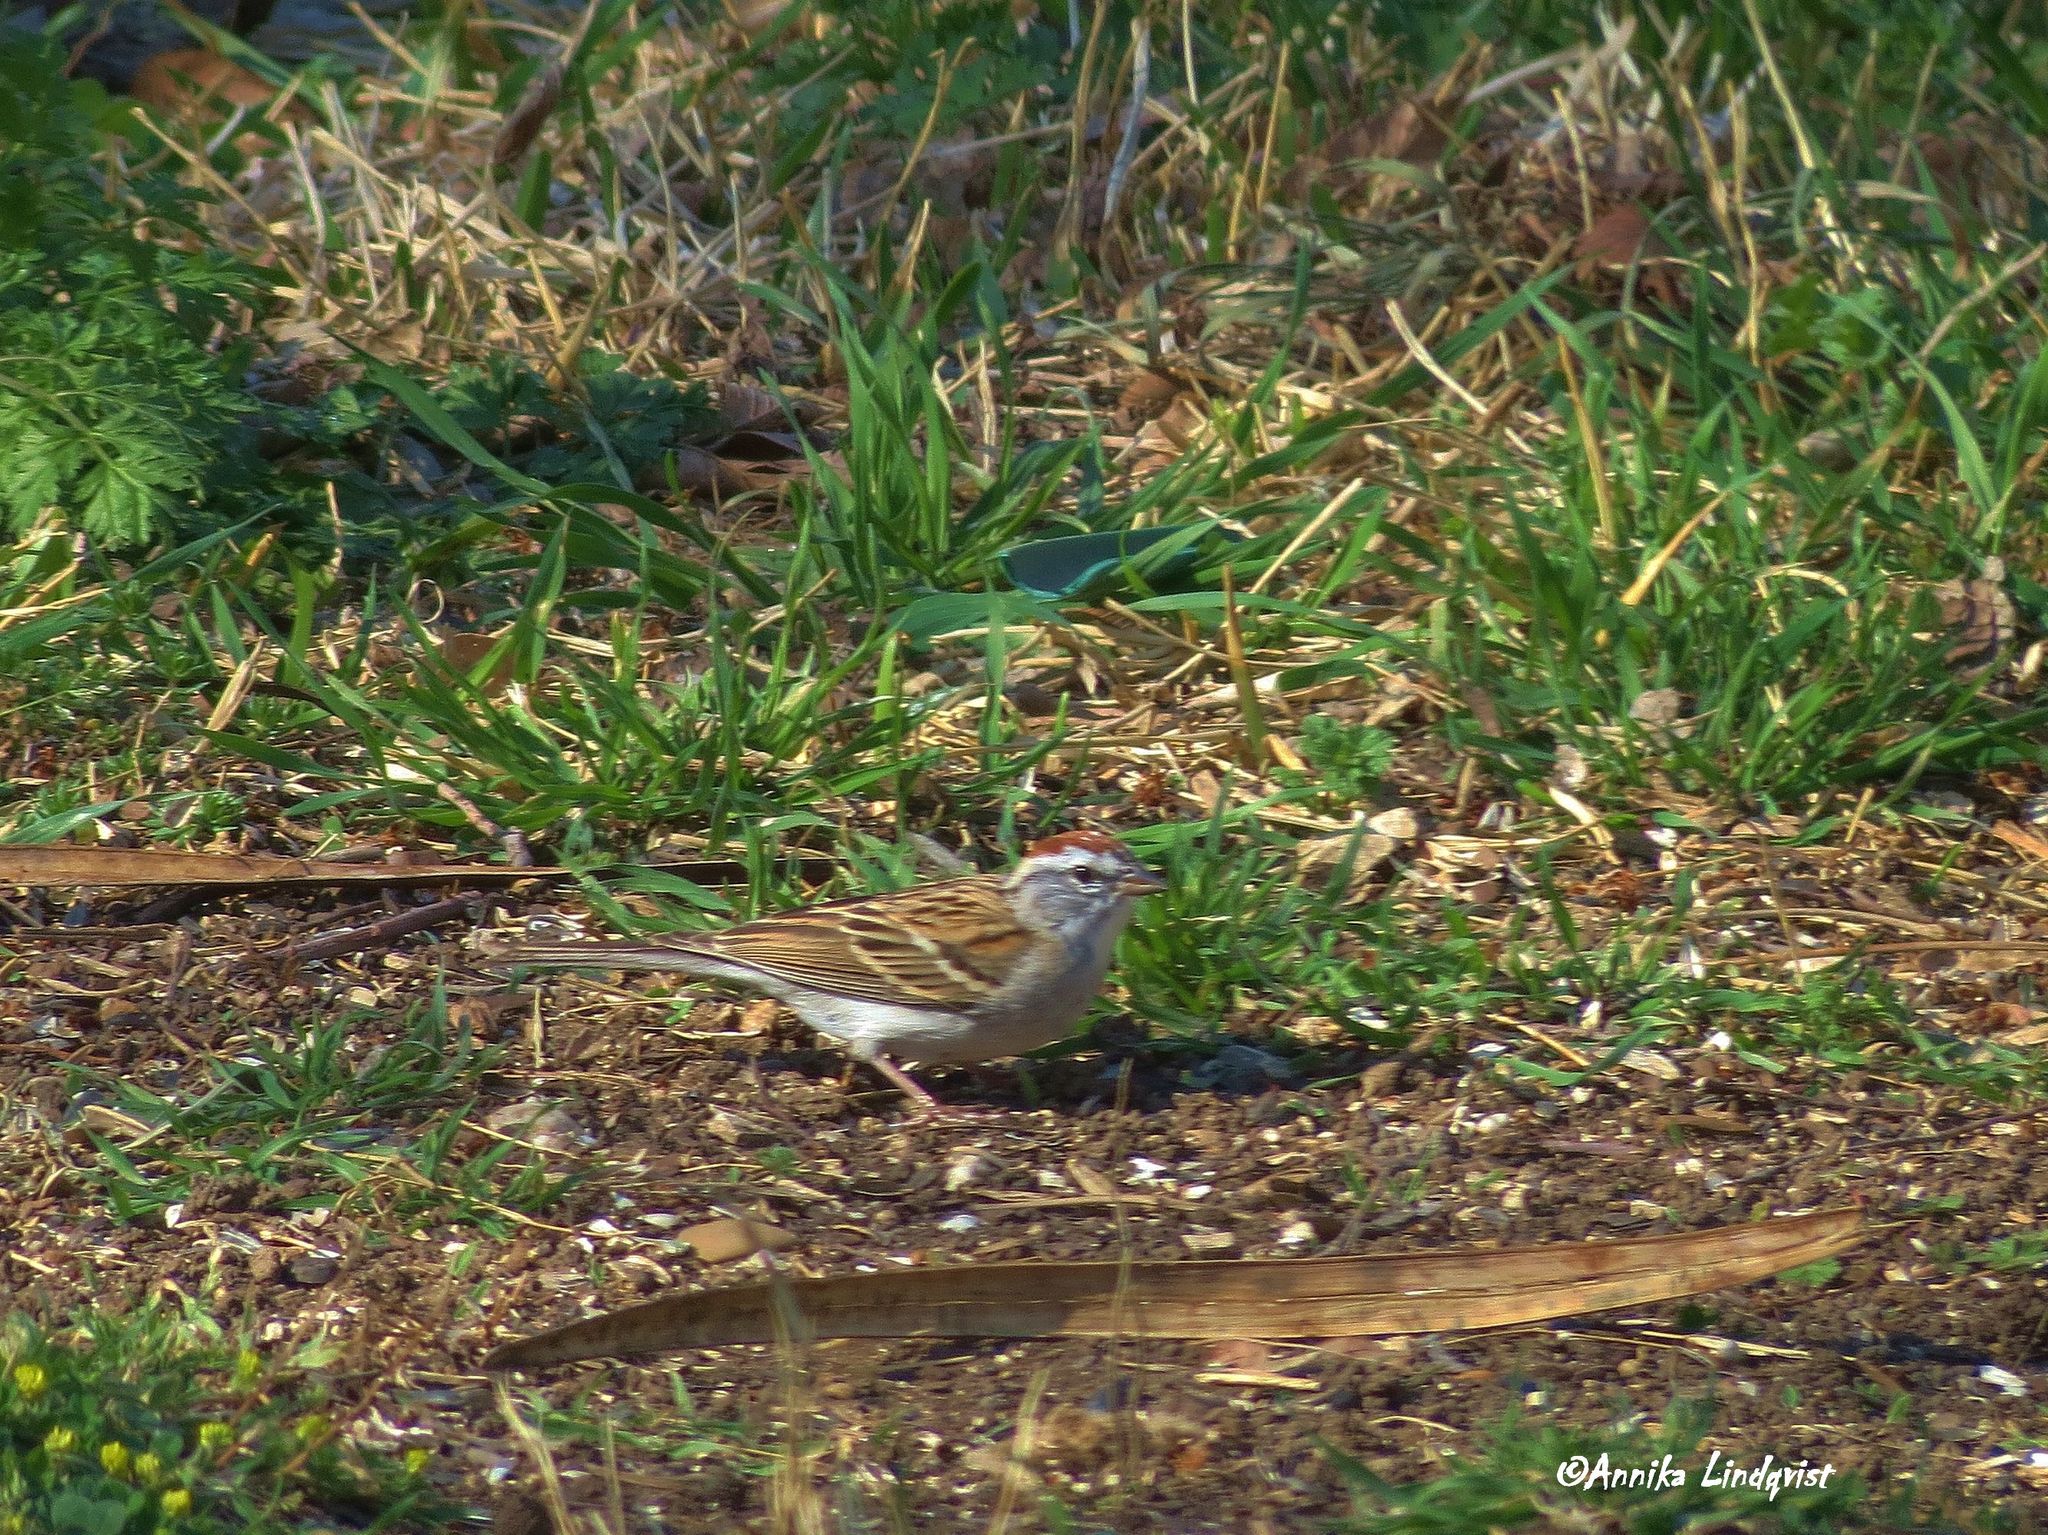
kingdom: Animalia
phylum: Chordata
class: Aves
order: Passeriformes
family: Passerellidae
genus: Spizella
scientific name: Spizella passerina
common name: Chipping sparrow
